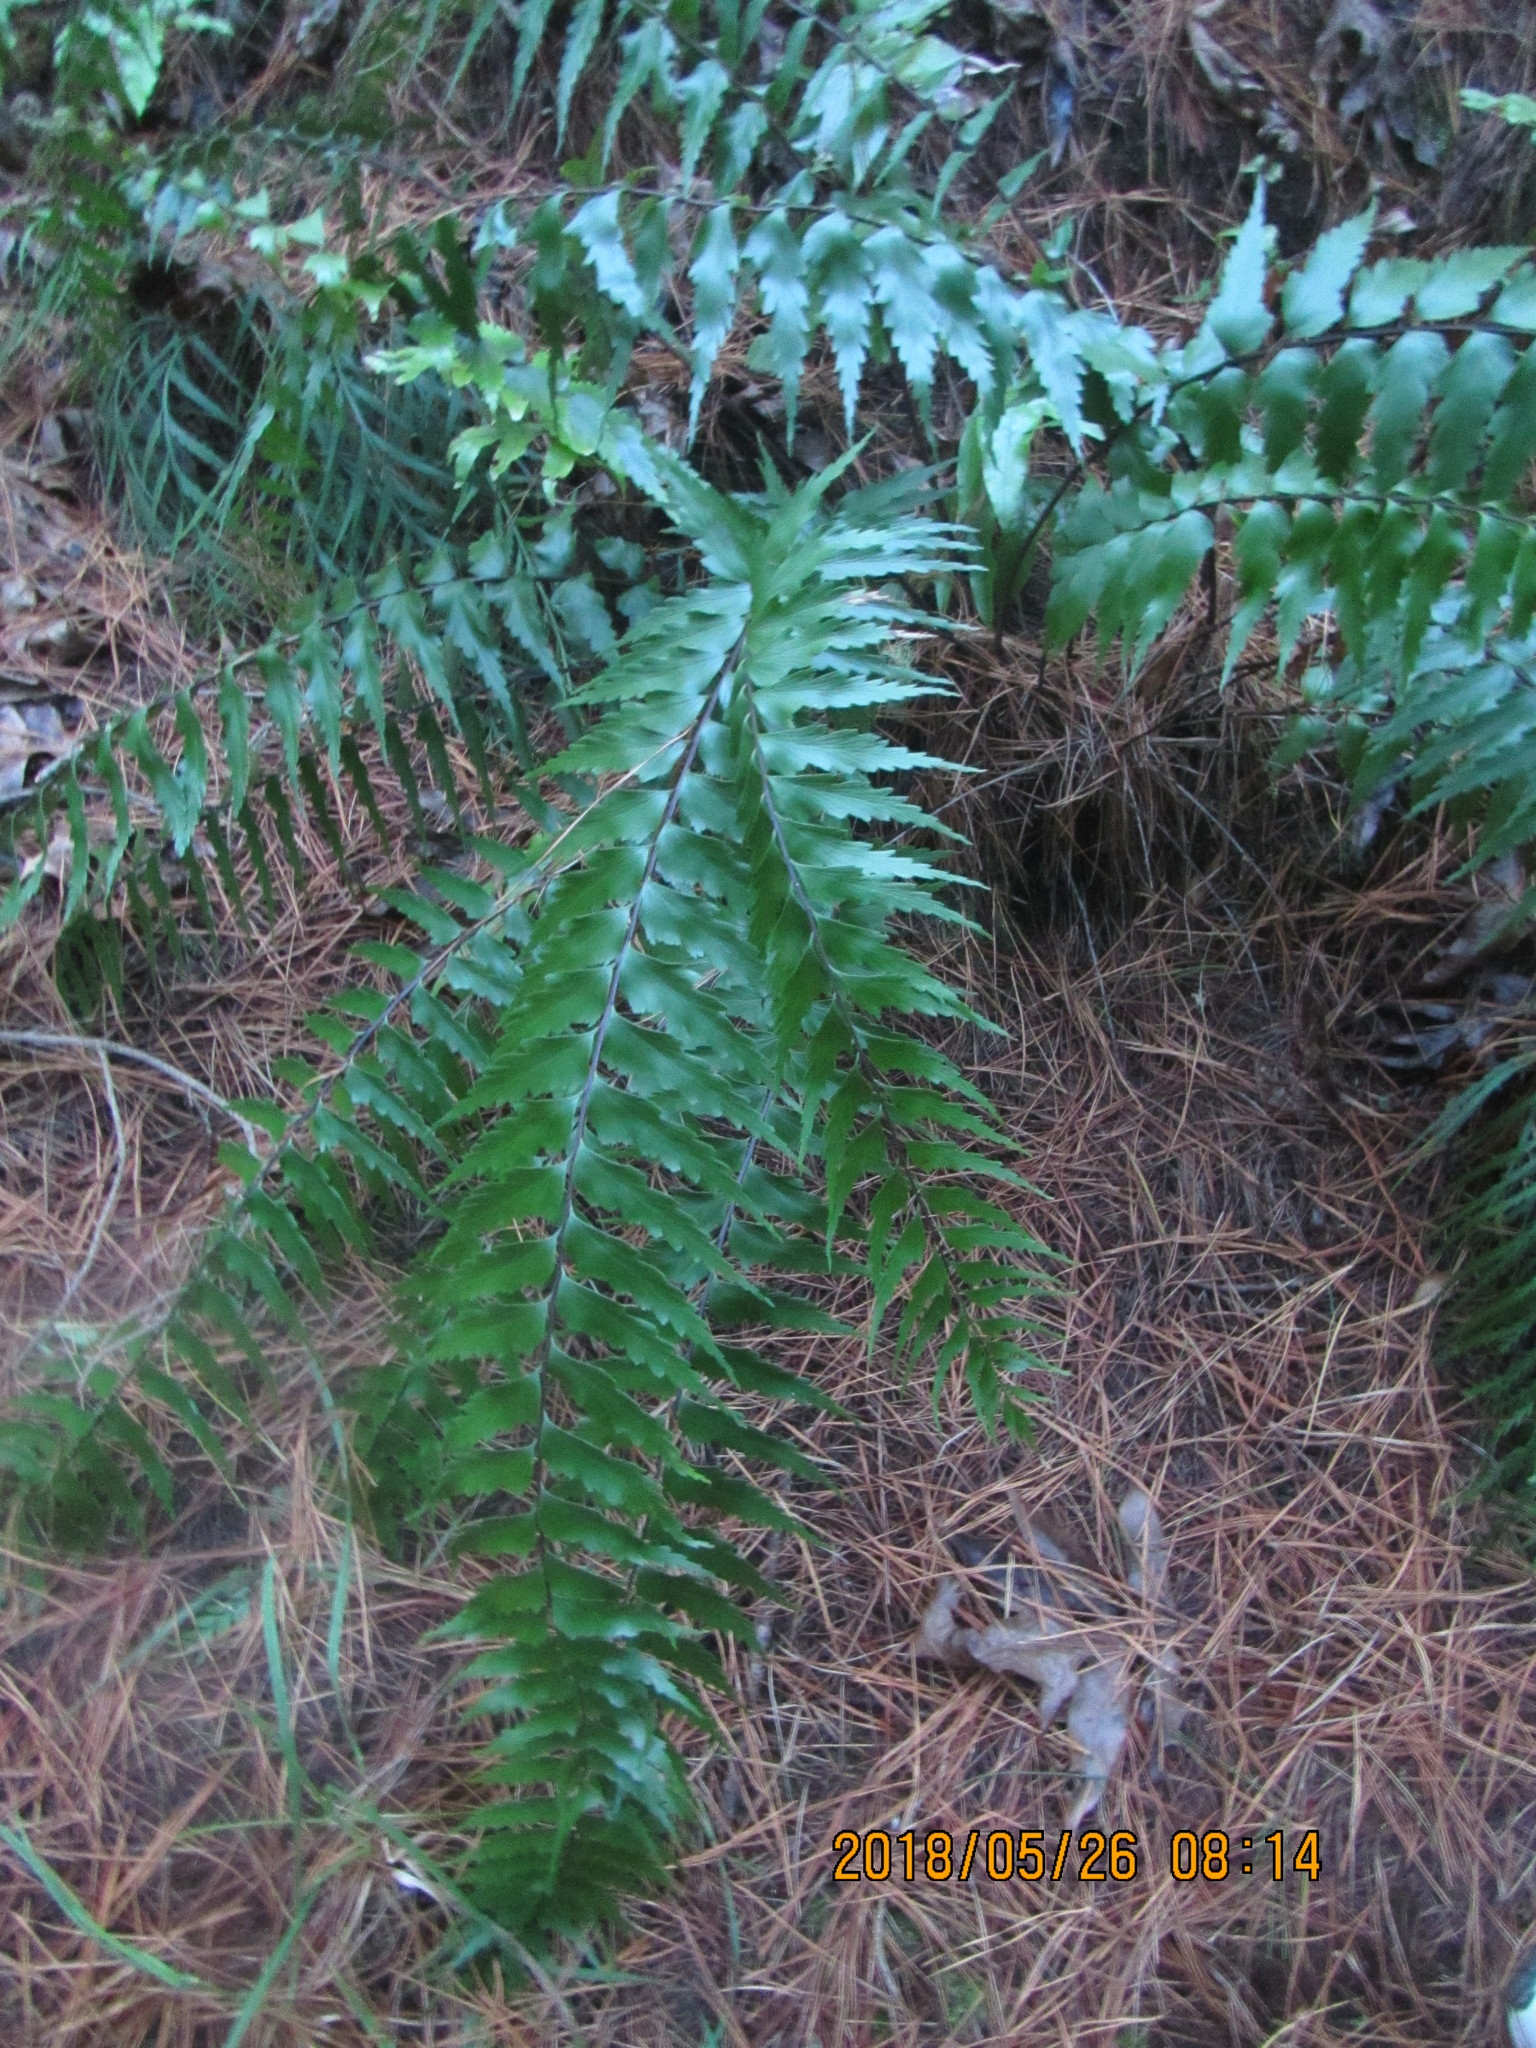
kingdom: Plantae
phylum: Tracheophyta
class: Polypodiopsida
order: Polypodiales
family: Aspleniaceae
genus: Asplenium
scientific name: Asplenium polyodon
